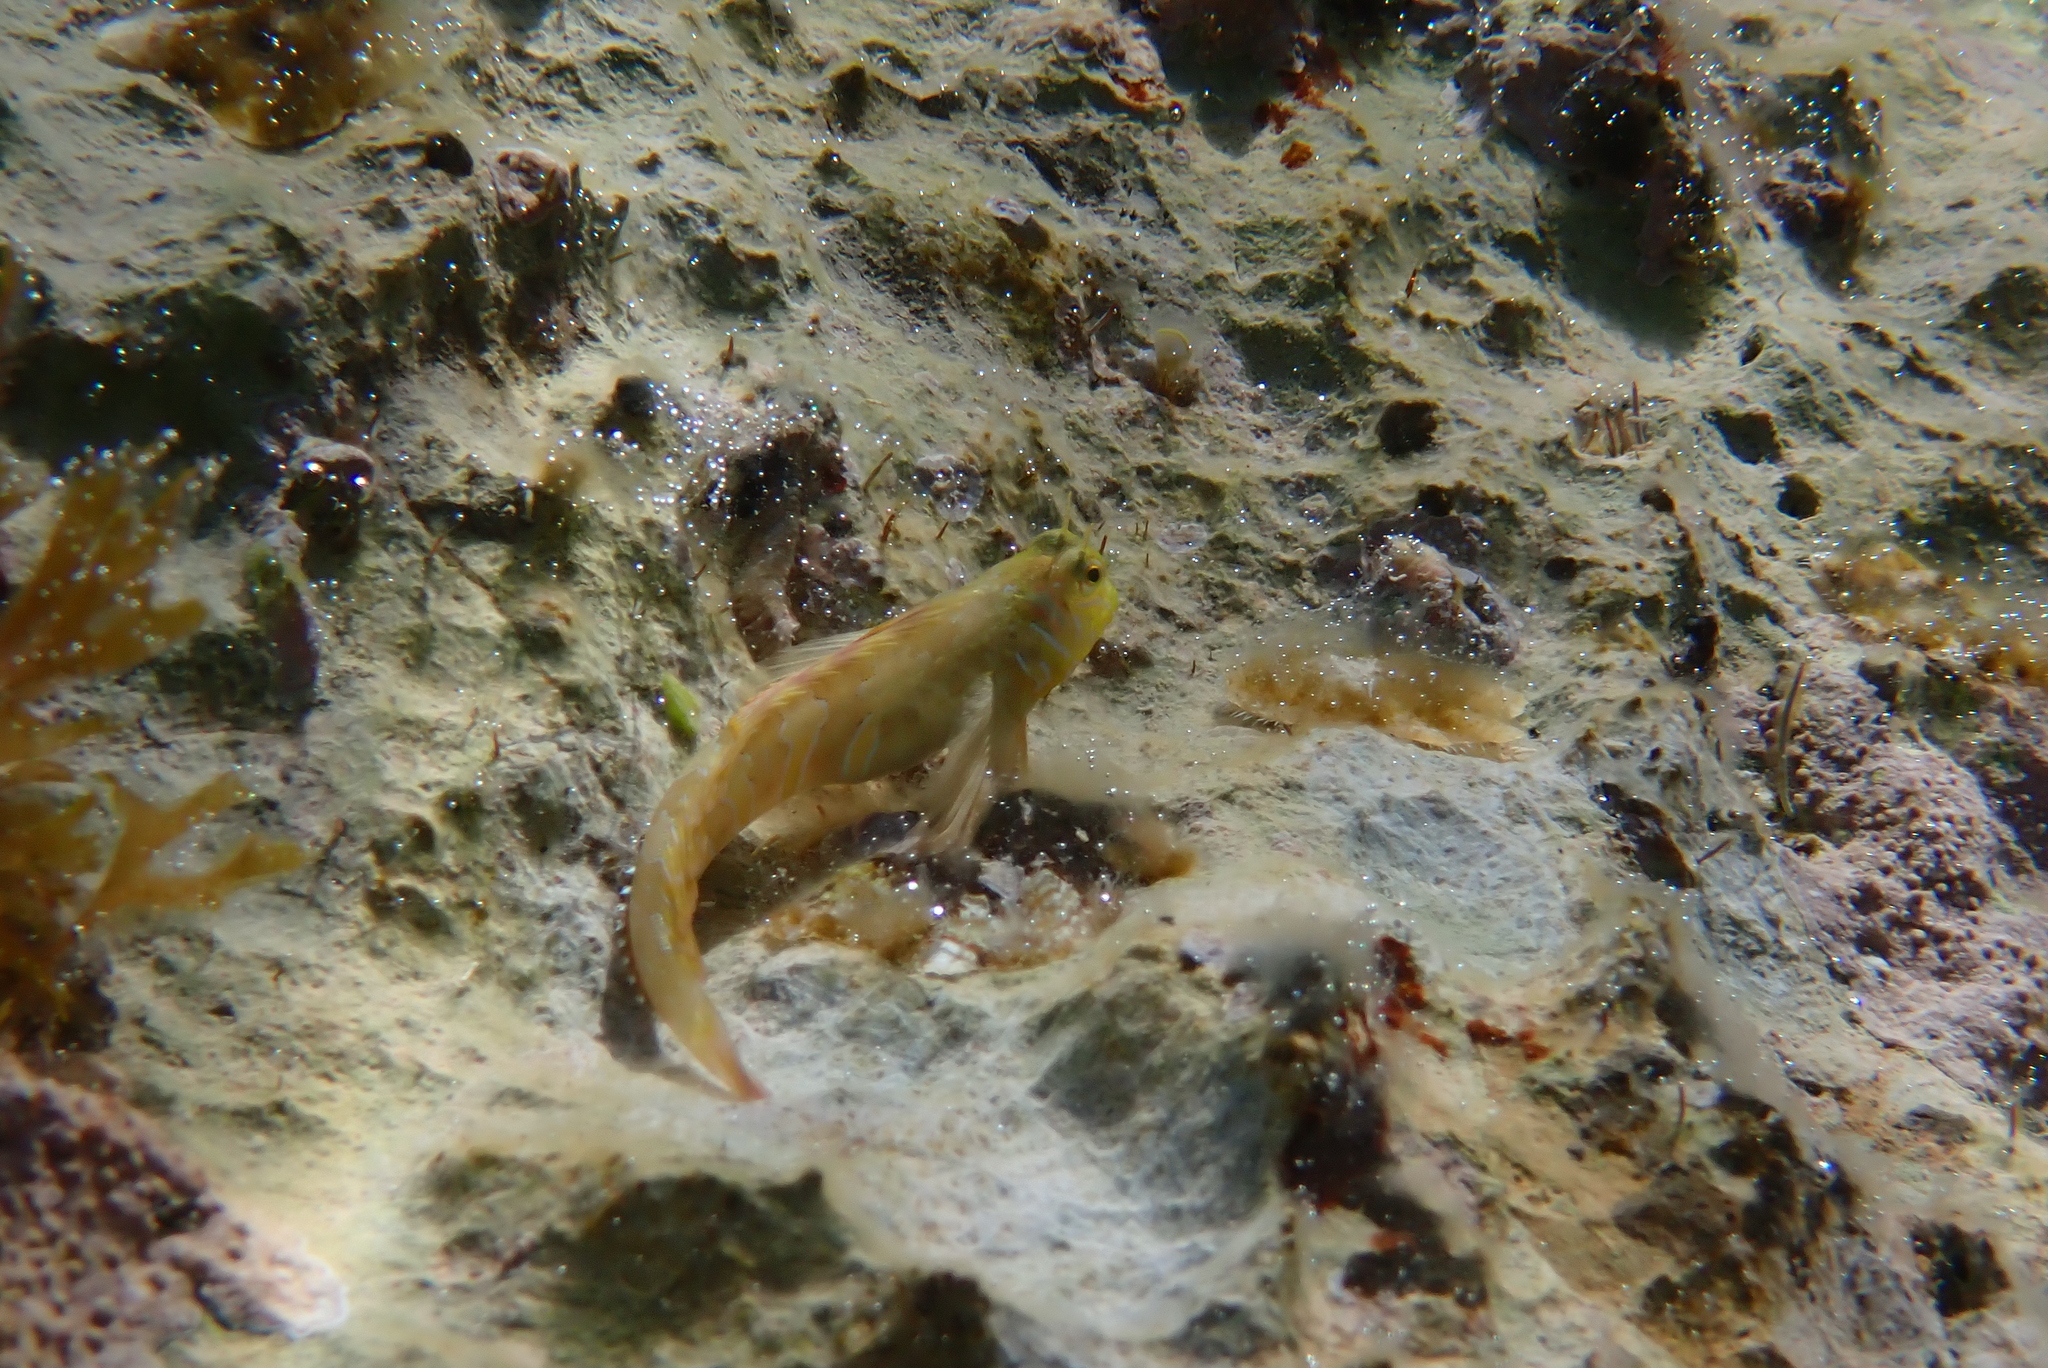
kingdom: Animalia
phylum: Chordata
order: Perciformes
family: Blenniidae
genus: Aidablennius
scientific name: Aidablennius sphynx
